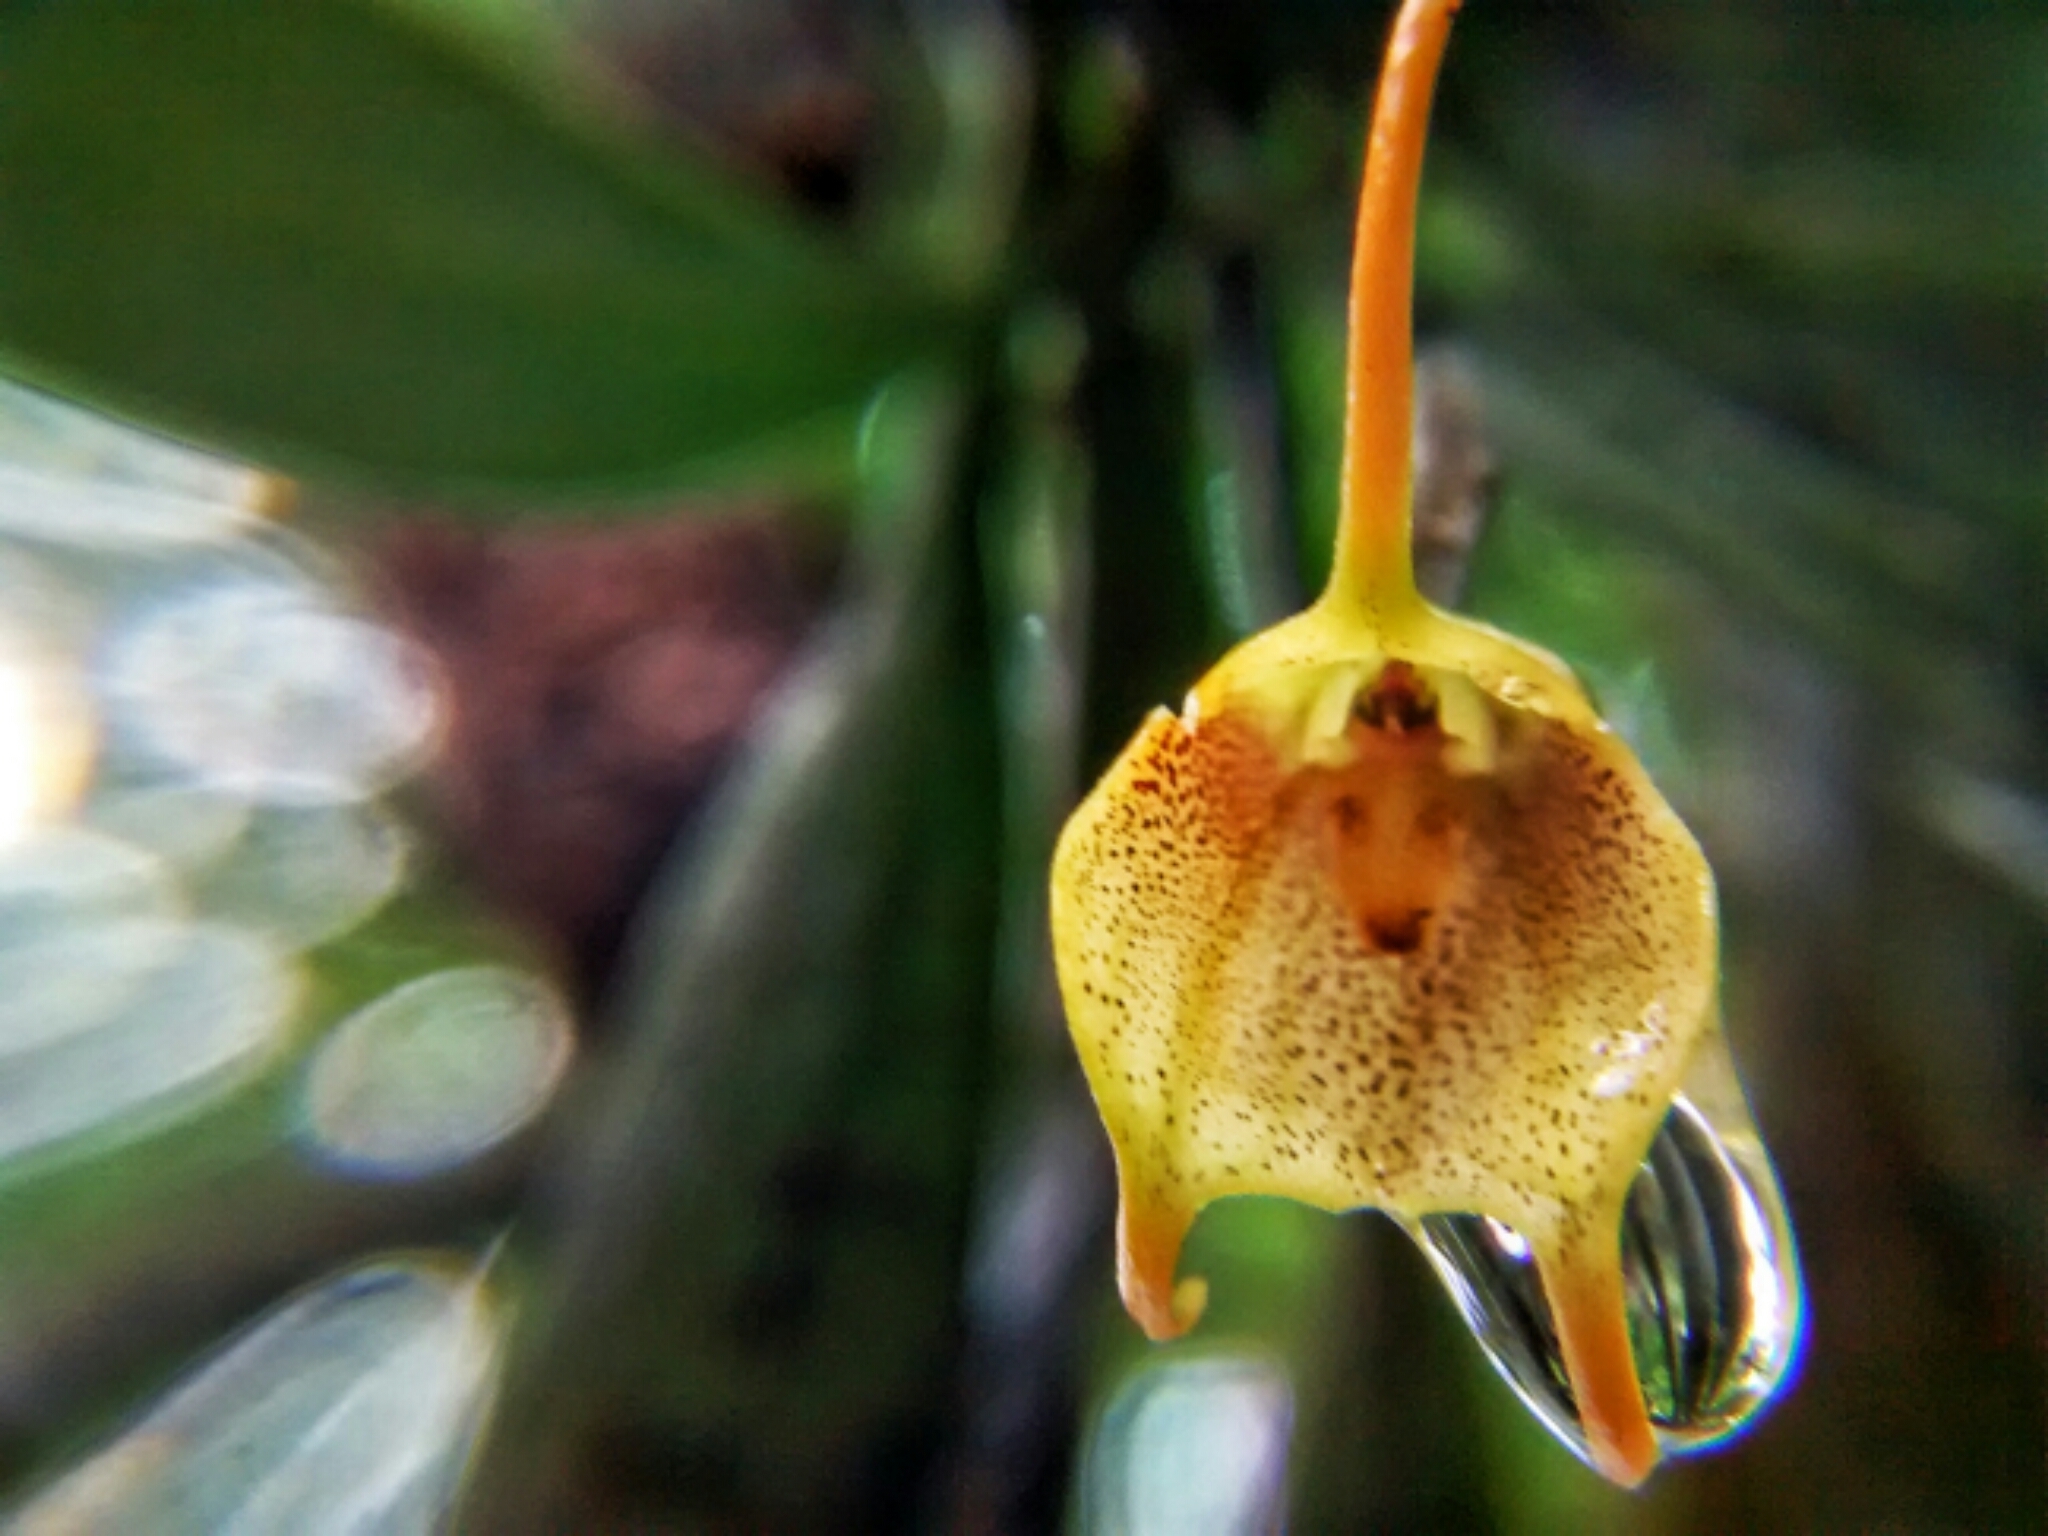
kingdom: Plantae
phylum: Tracheophyta
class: Liliopsida
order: Asparagales
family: Orchidaceae
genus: Masdevallia
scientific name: Masdevallia floribunda
